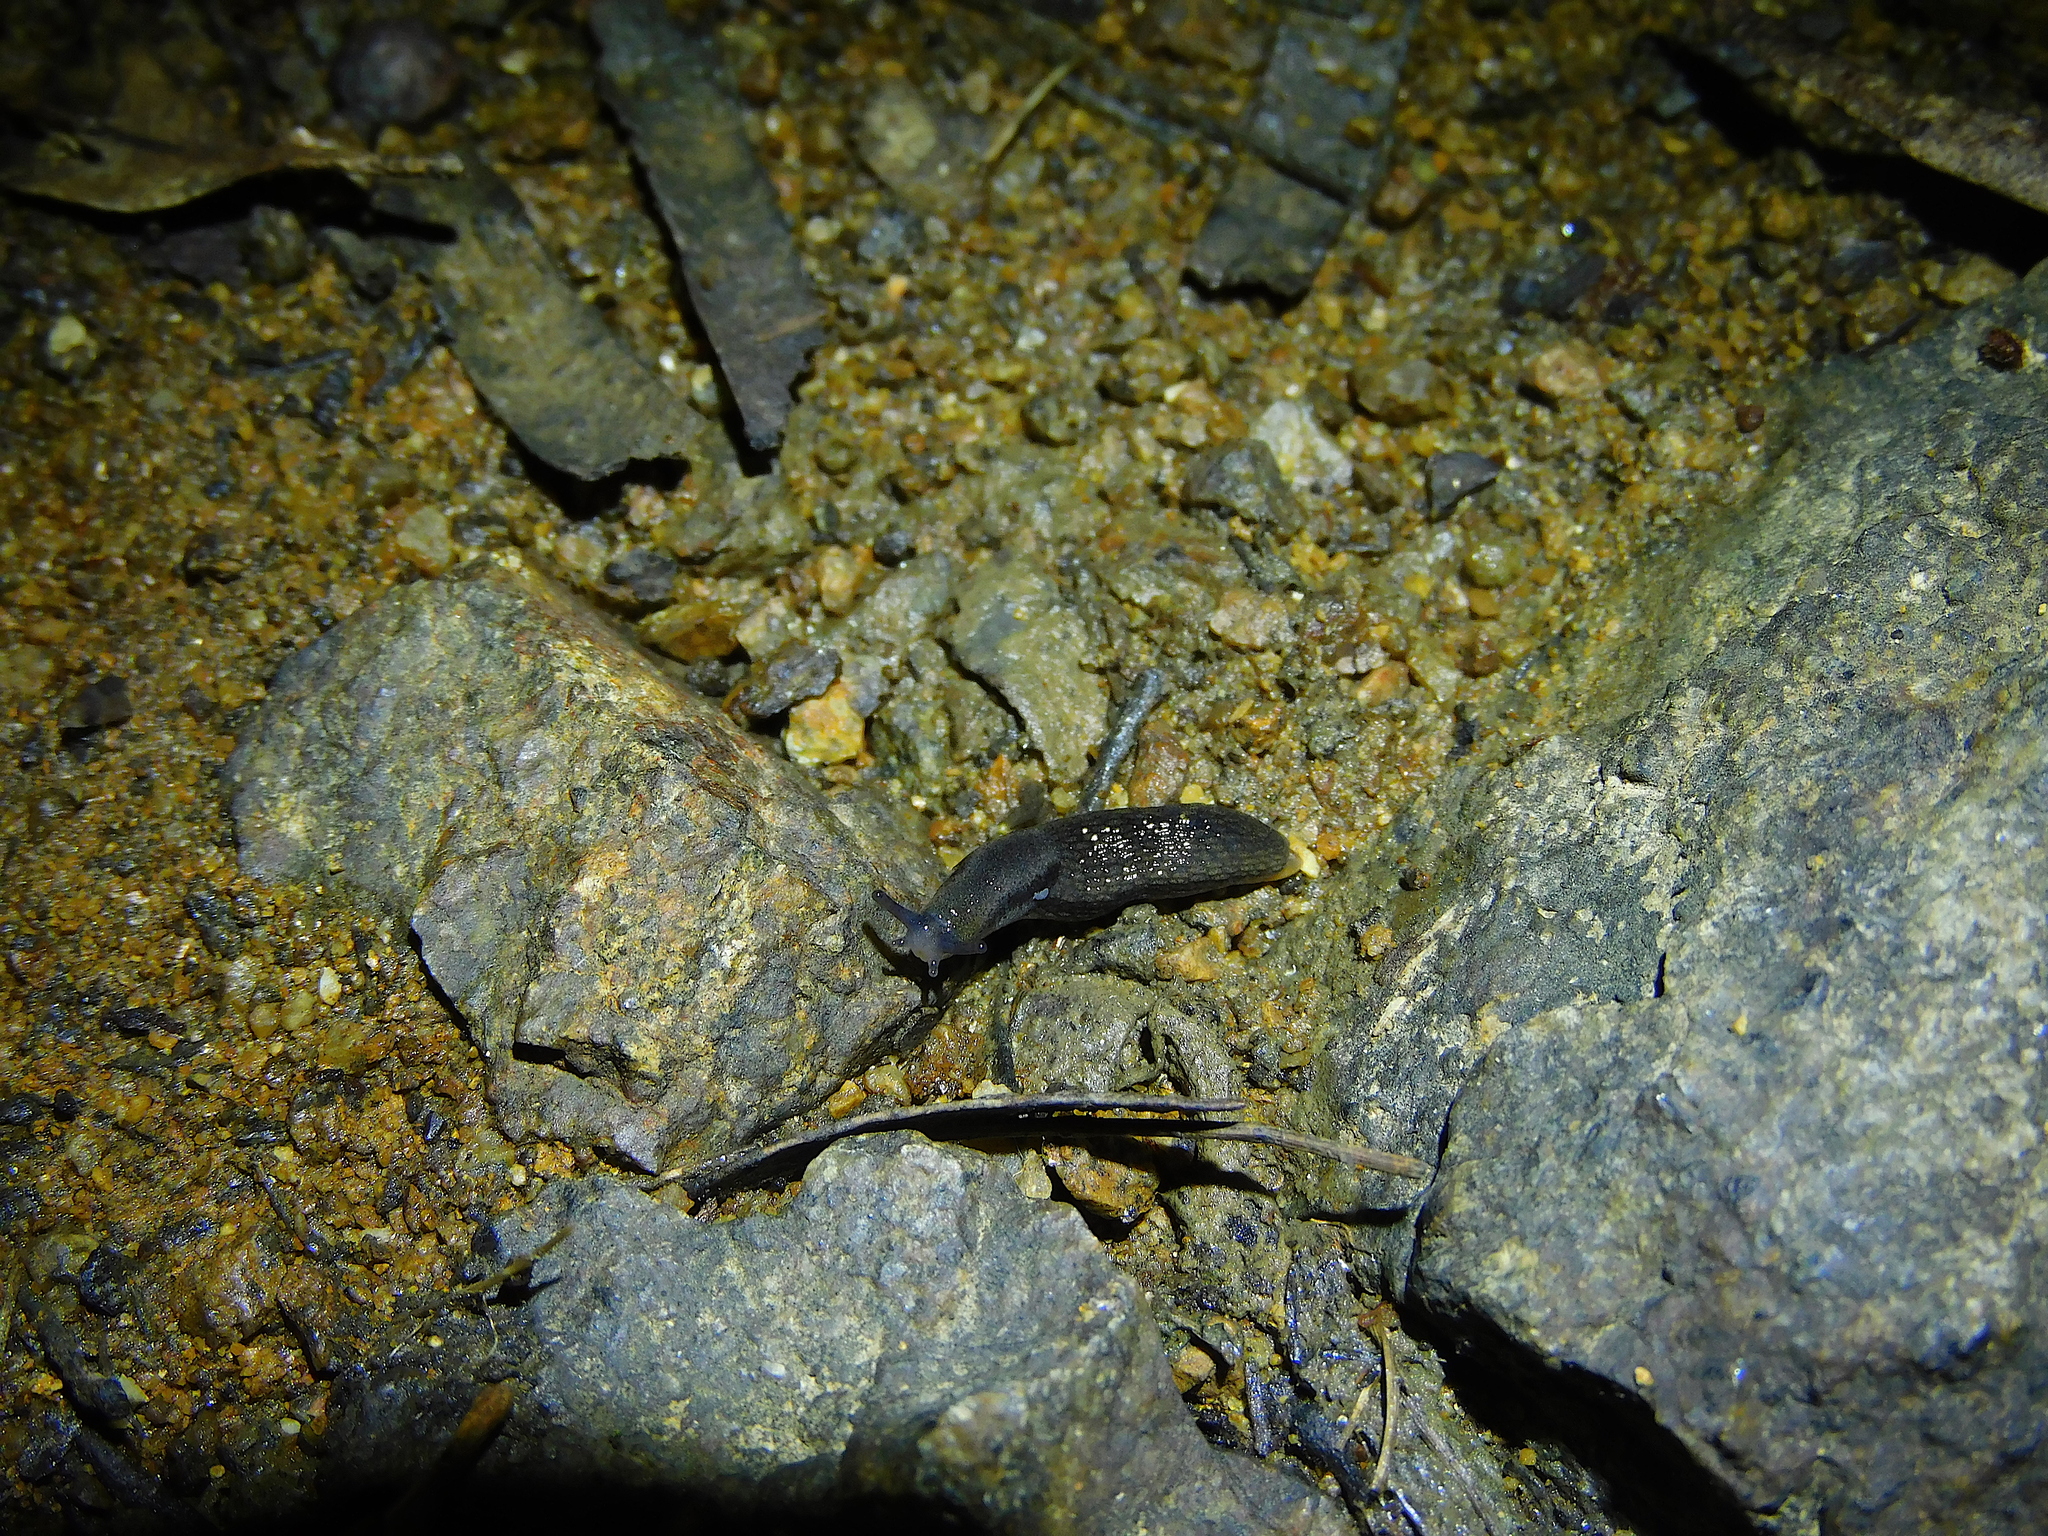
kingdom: Animalia
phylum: Mollusca
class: Gastropoda
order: Stylommatophora
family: Arionidae
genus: Arion
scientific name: Arion hortensis
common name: Garden arion
